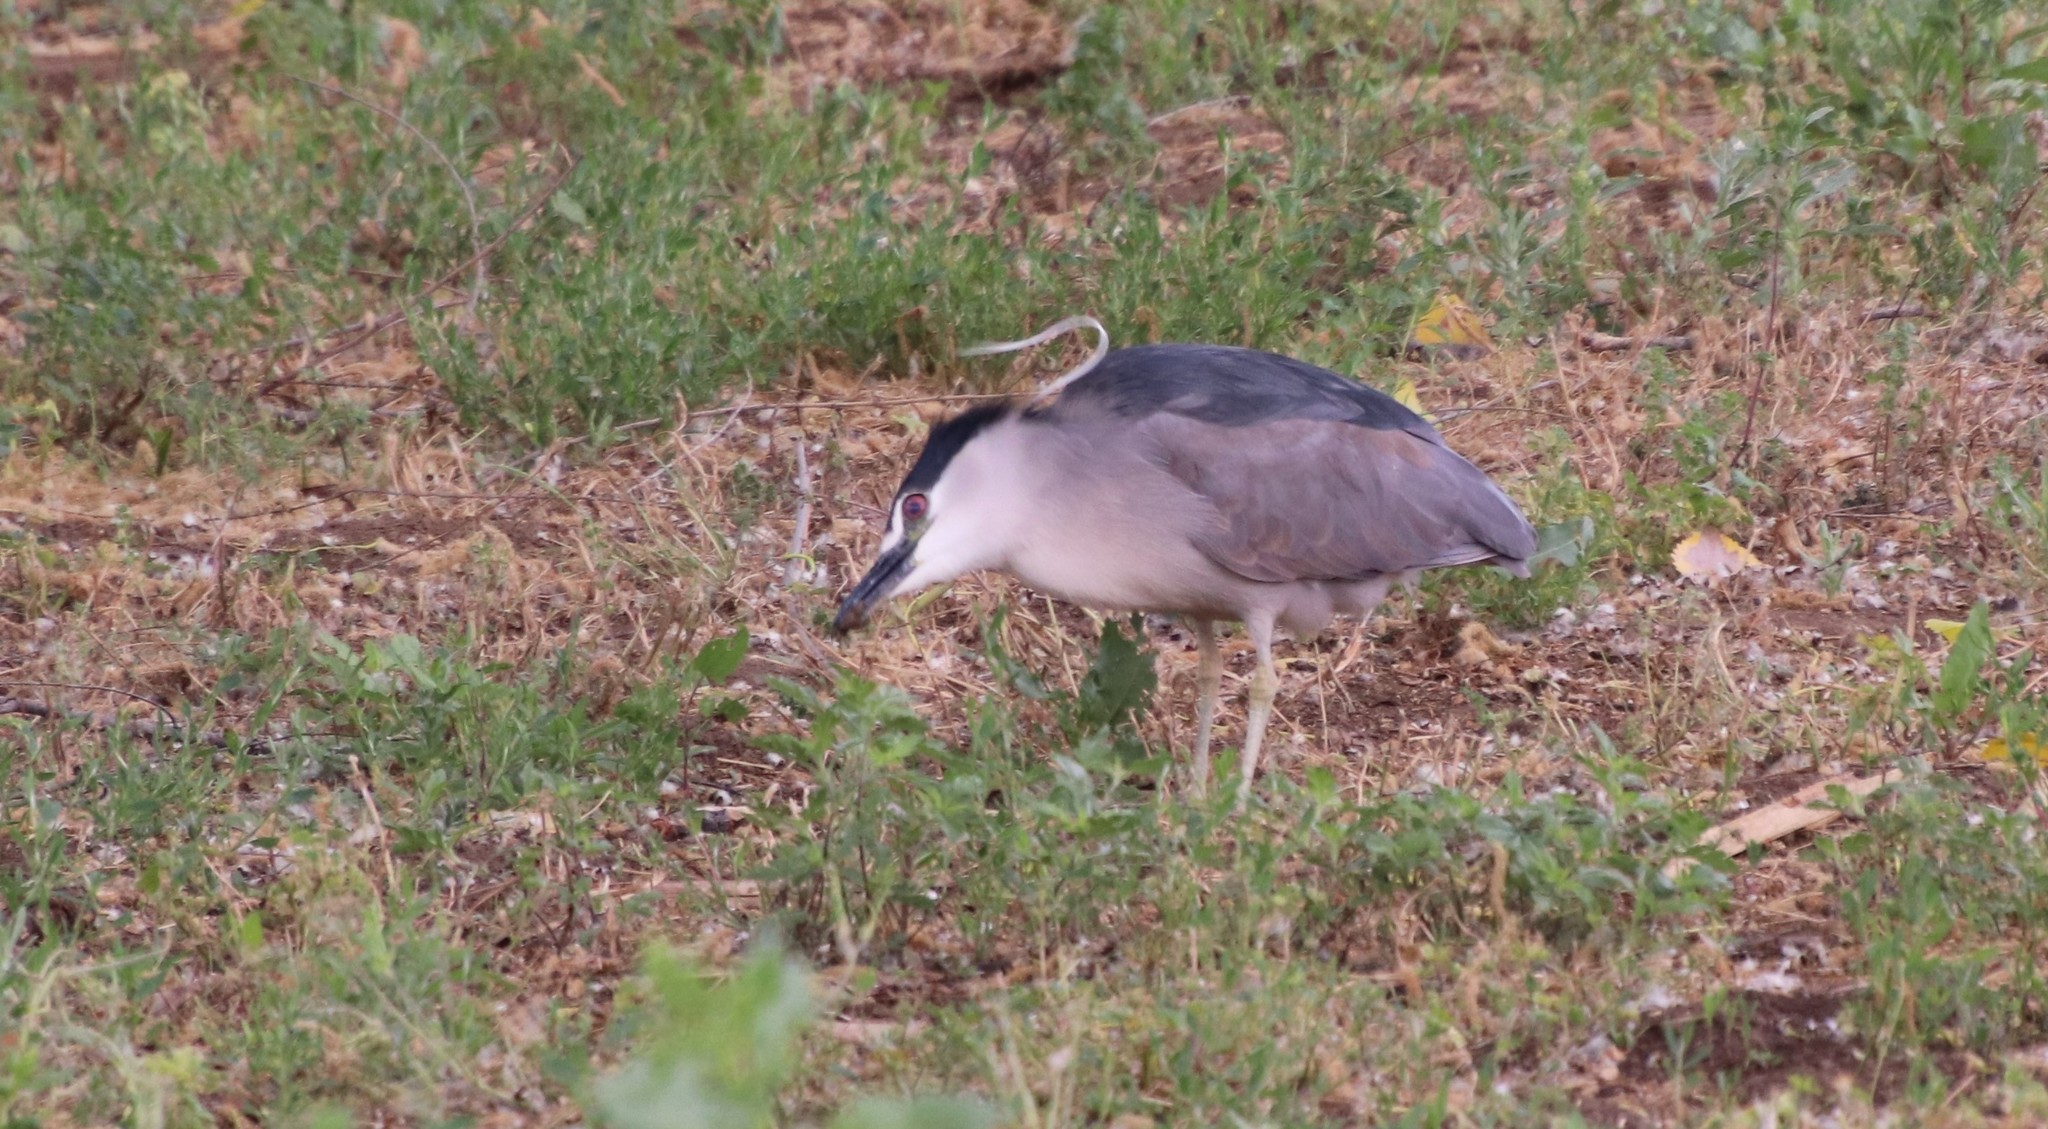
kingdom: Animalia
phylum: Chordata
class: Aves
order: Pelecaniformes
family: Ardeidae
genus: Nycticorax
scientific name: Nycticorax nycticorax
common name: Black-crowned night heron
